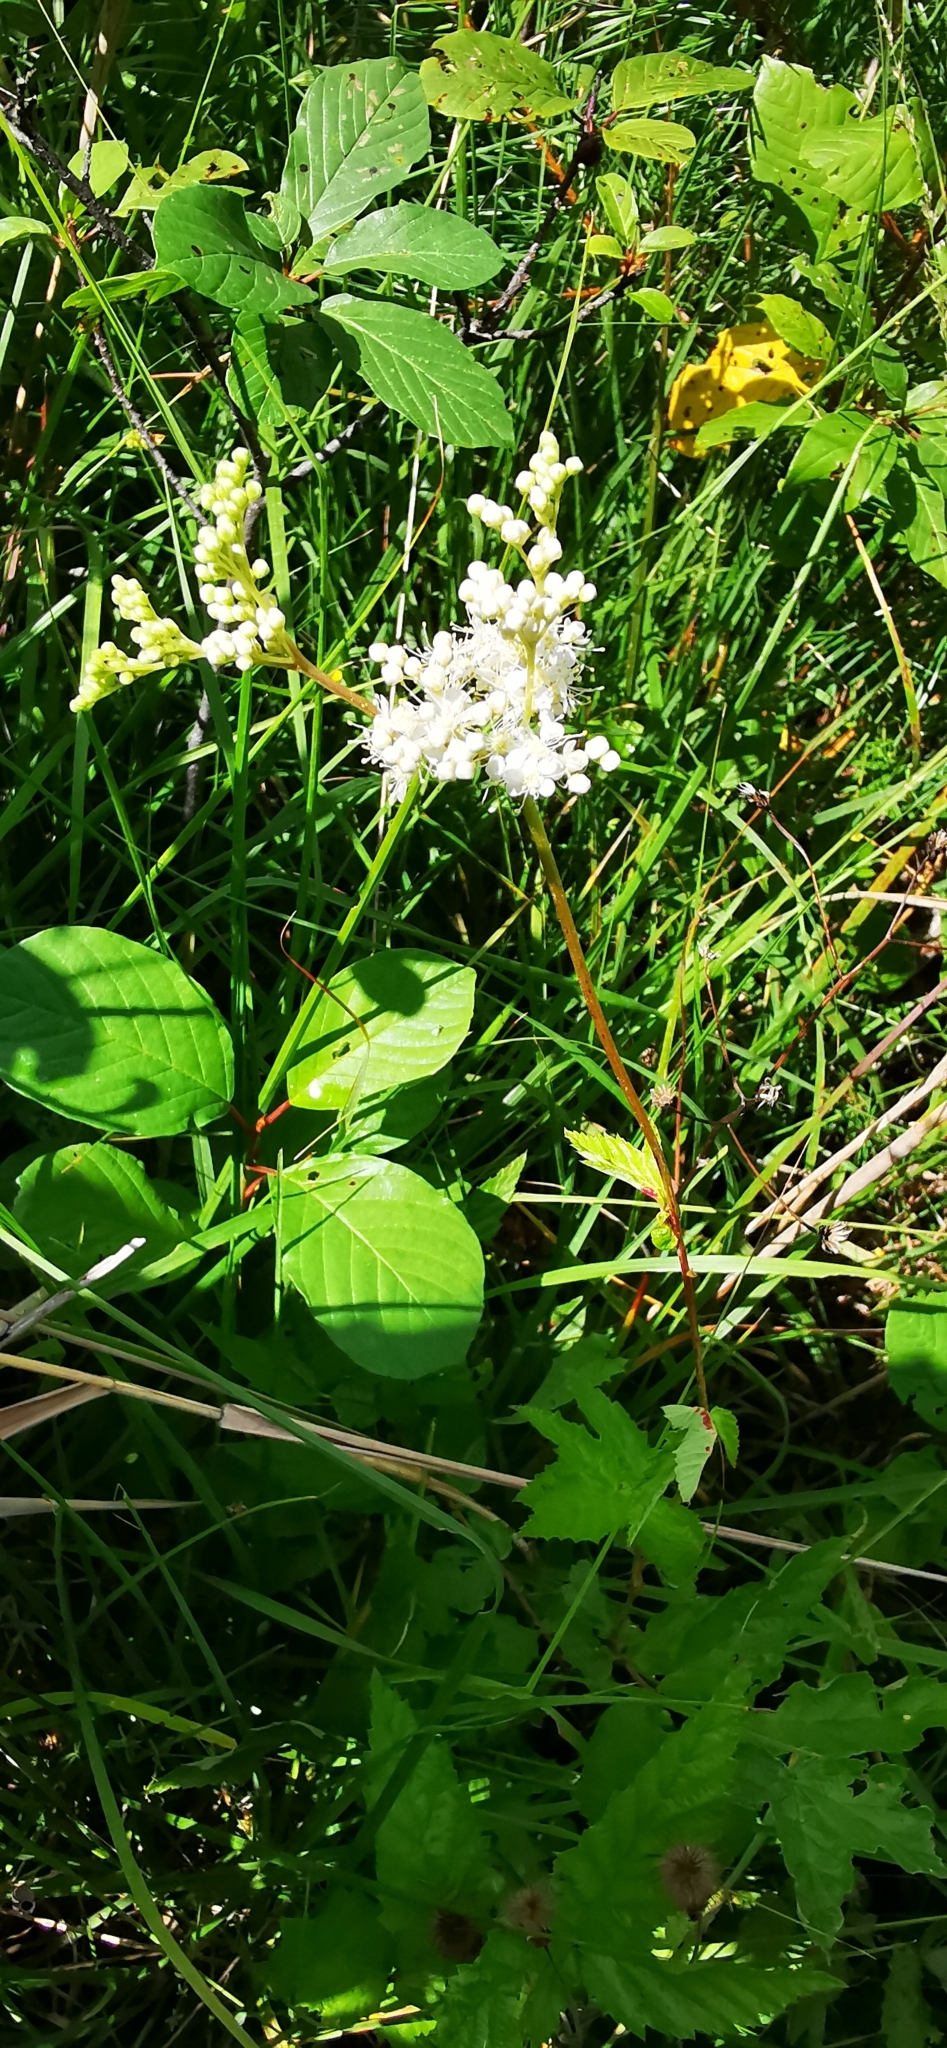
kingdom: Plantae
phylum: Tracheophyta
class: Magnoliopsida
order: Rosales
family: Rosaceae
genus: Filipendula
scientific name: Filipendula ulmaria
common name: Meadowsweet
